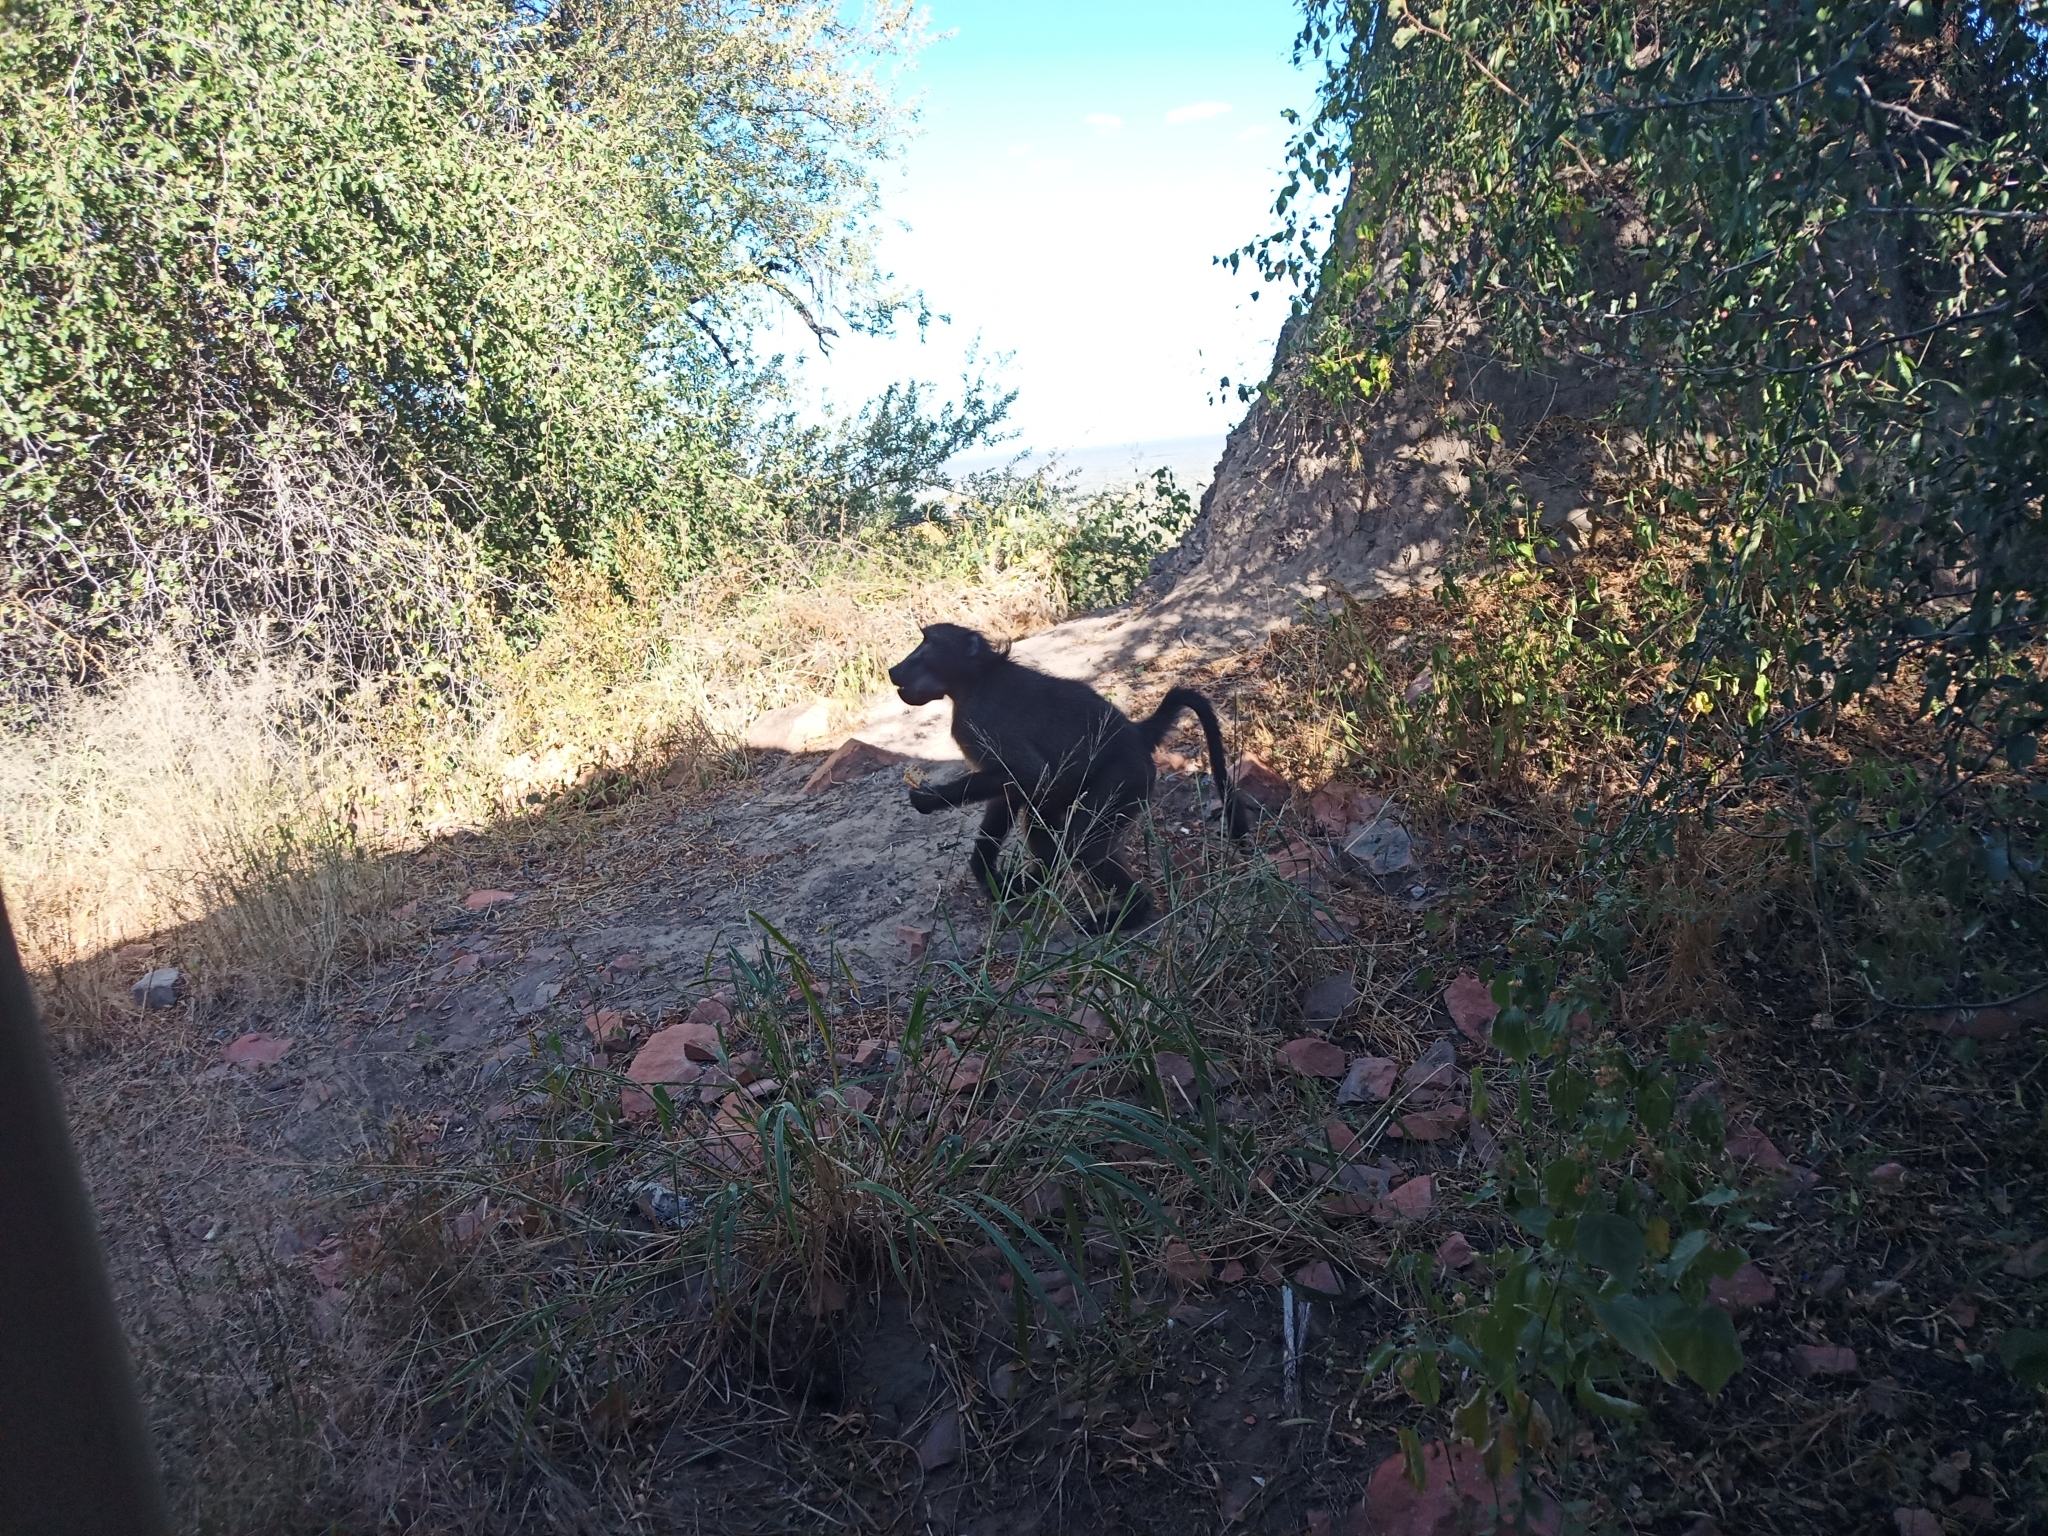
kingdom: Animalia
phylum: Chordata
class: Mammalia
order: Primates
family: Cercopithecidae
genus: Papio
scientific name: Papio ursinus
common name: Chacma baboon
